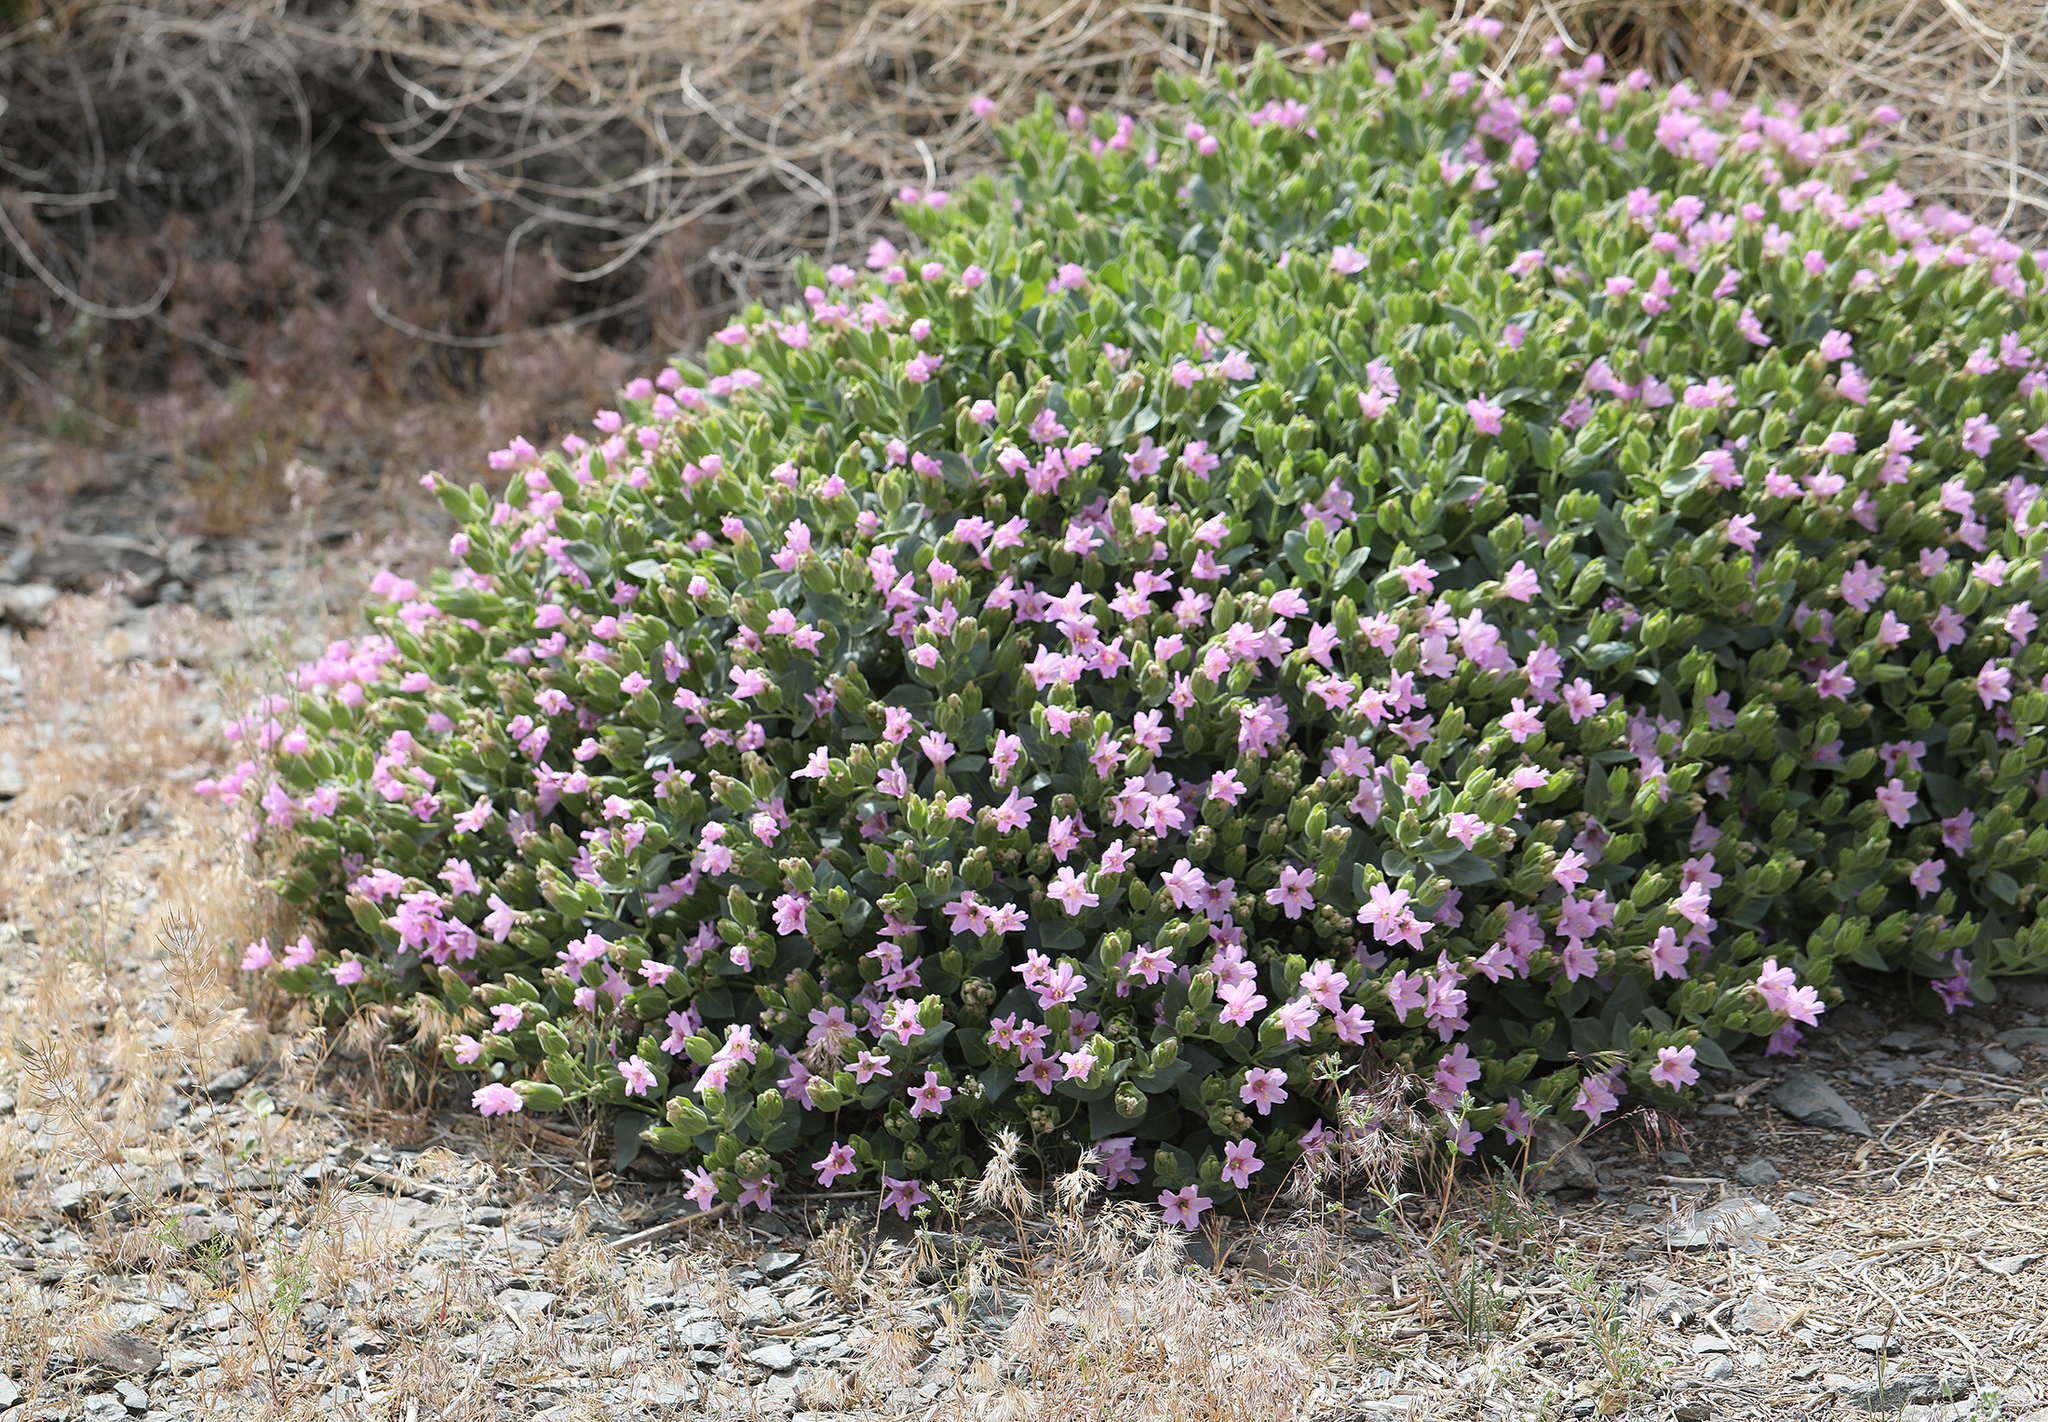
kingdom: Plantae
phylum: Tracheophyta
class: Magnoliopsida
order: Caryophyllales
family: Nyctaginaceae
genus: Mirabilis
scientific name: Mirabilis multiflora
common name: Froebel's four-o'clock
